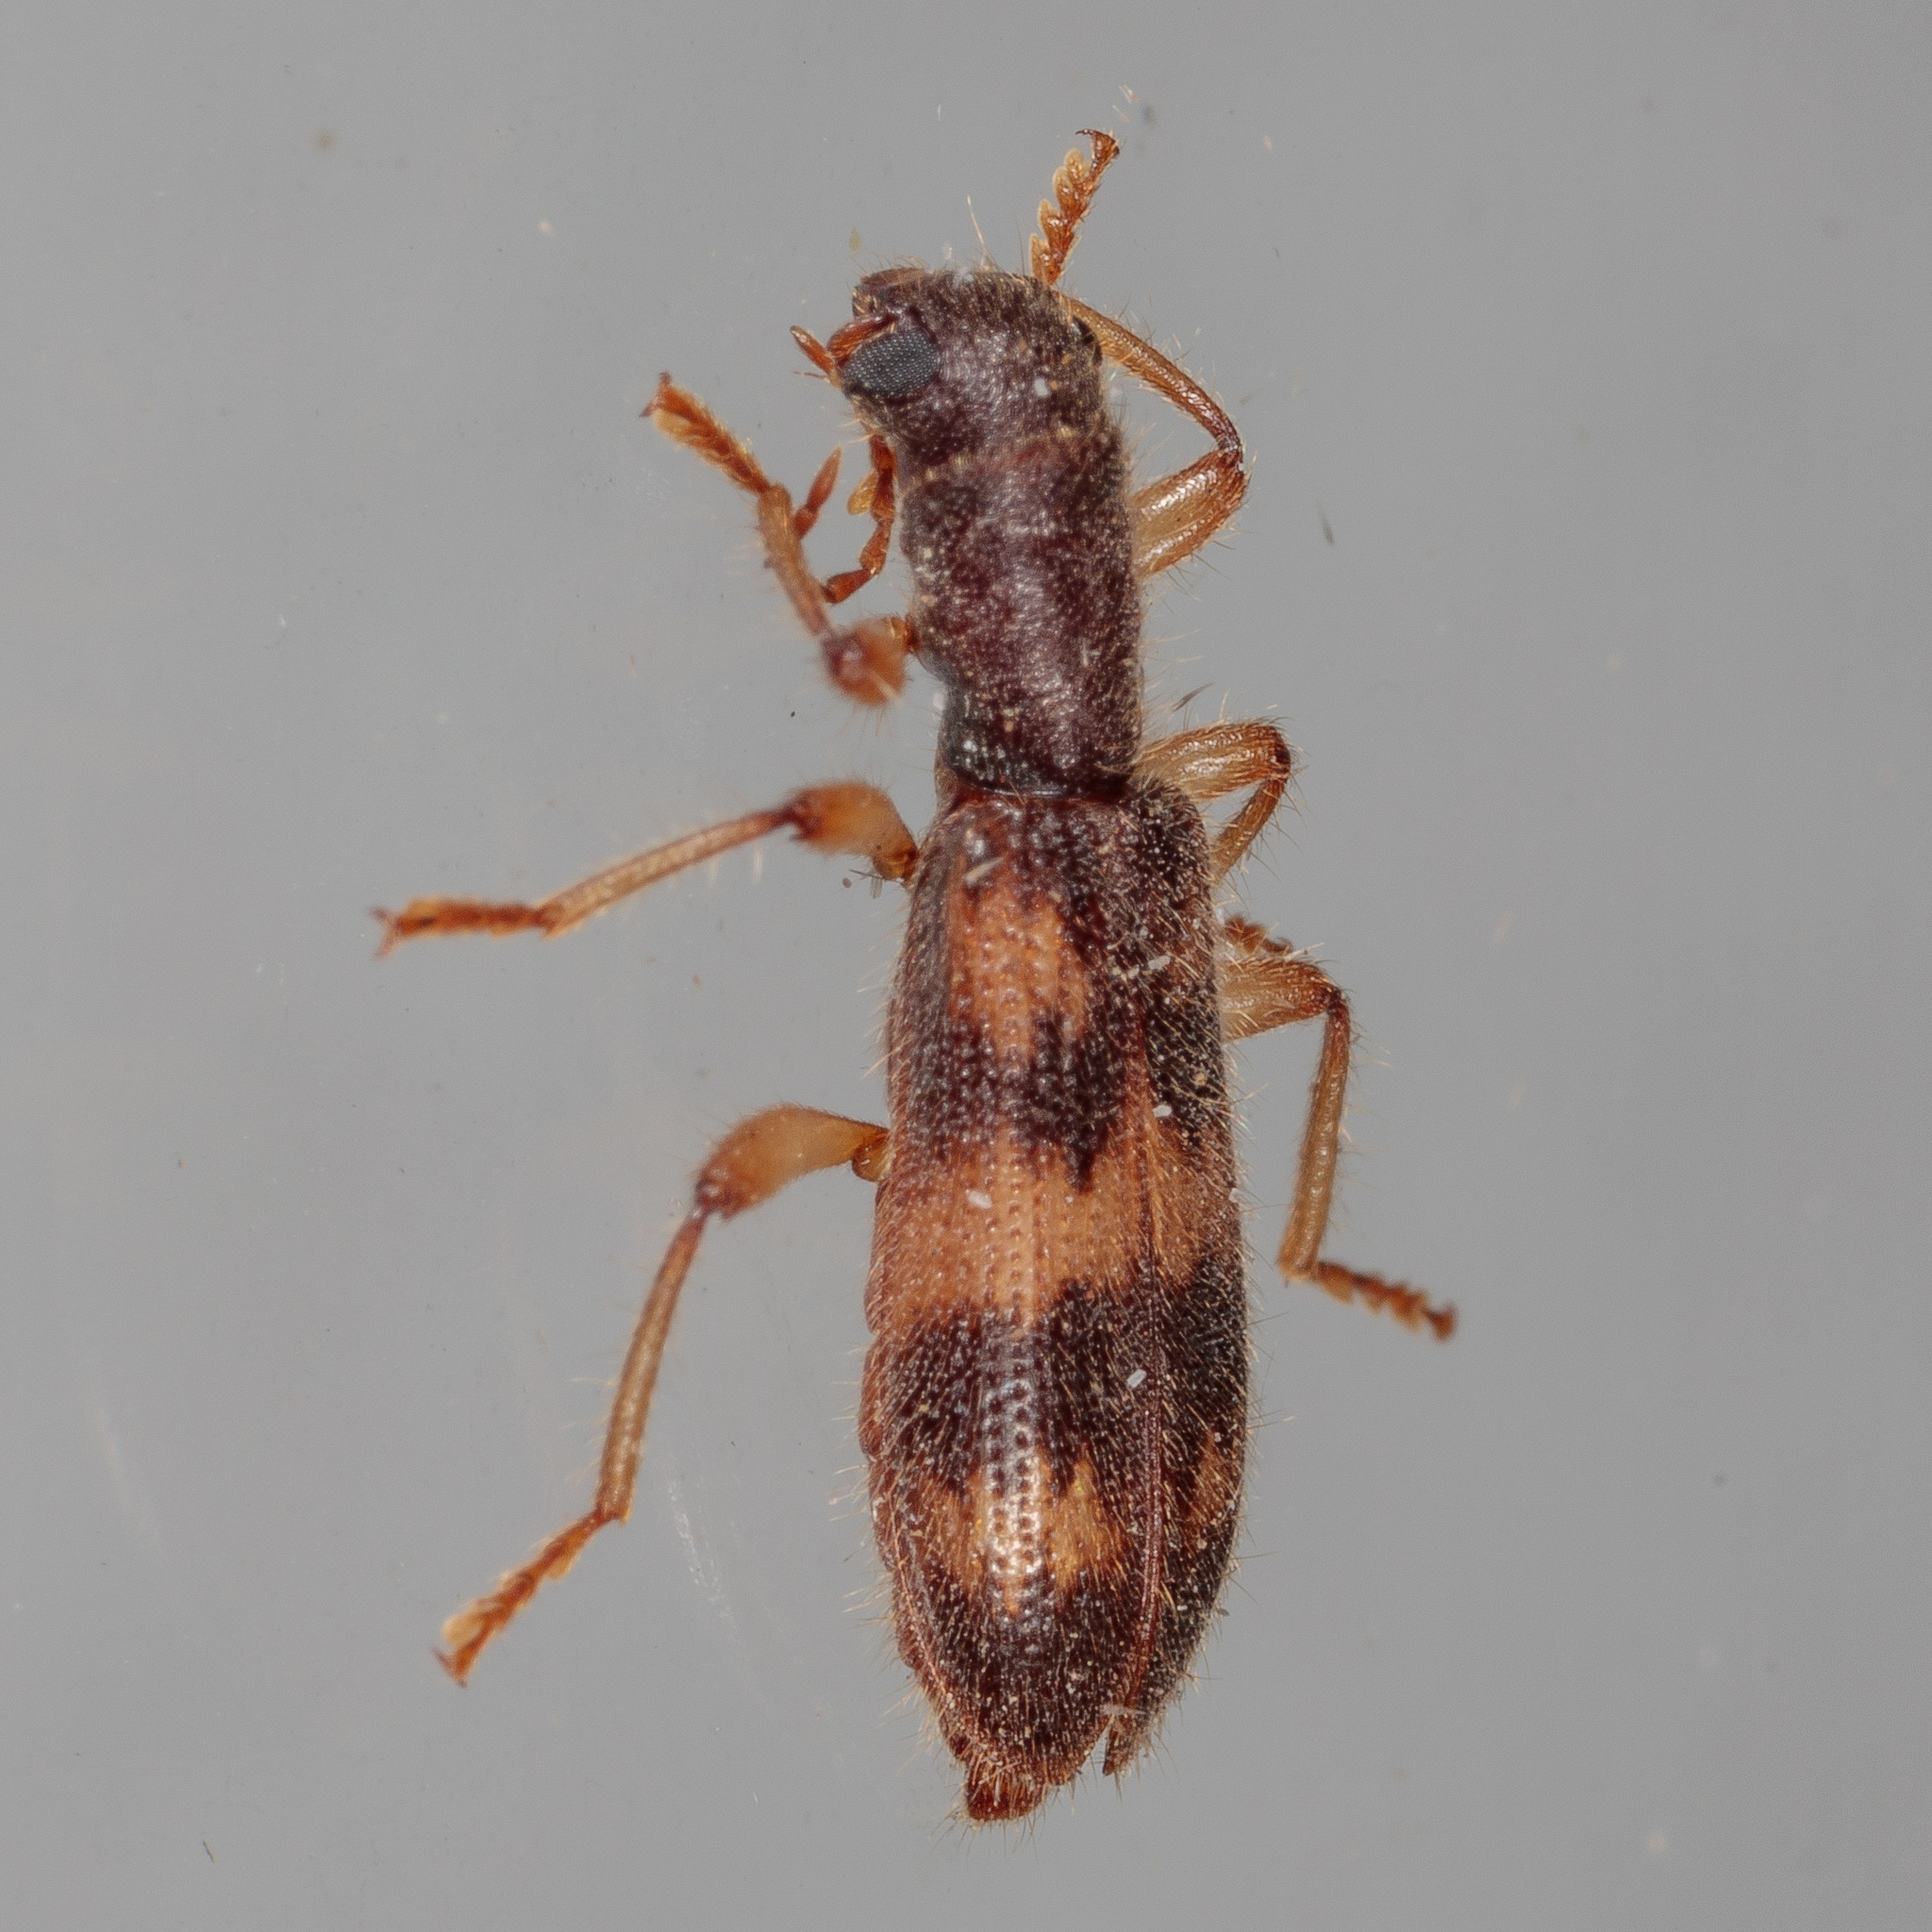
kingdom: Animalia
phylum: Arthropoda
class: Insecta
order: Coleoptera
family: Cleridae
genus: Cymatodera
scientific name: Cymatodera undulata
